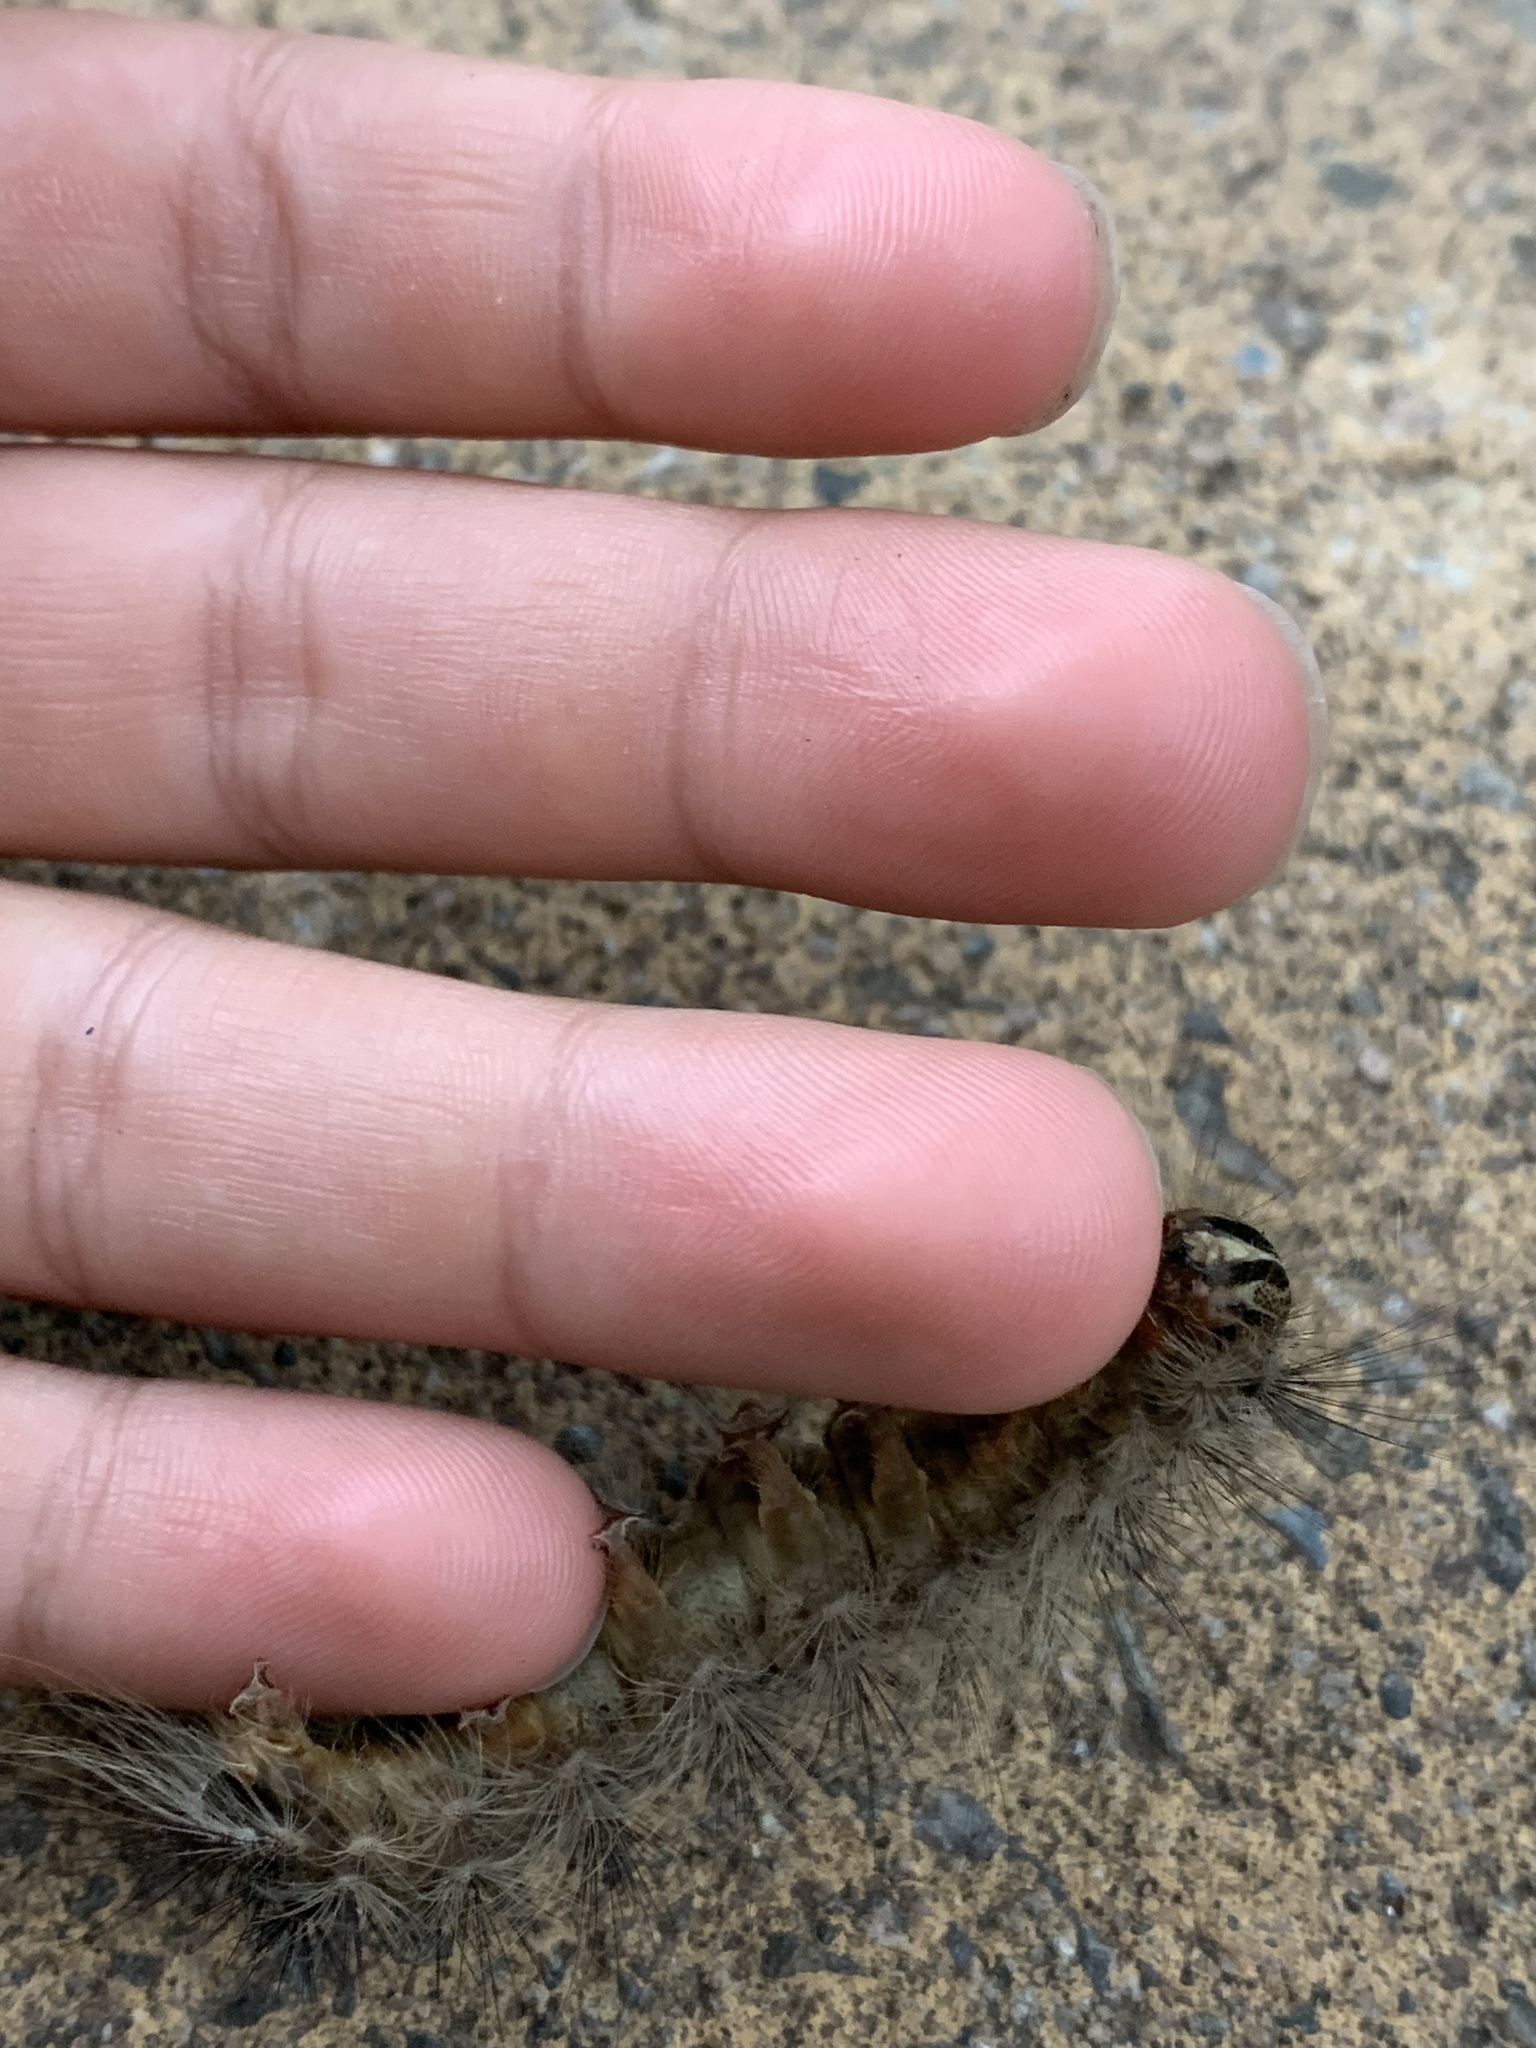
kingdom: Animalia
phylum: Arthropoda
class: Insecta
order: Lepidoptera
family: Erebidae
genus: Lymantria
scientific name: Lymantria dispar
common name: Gypsy moth
